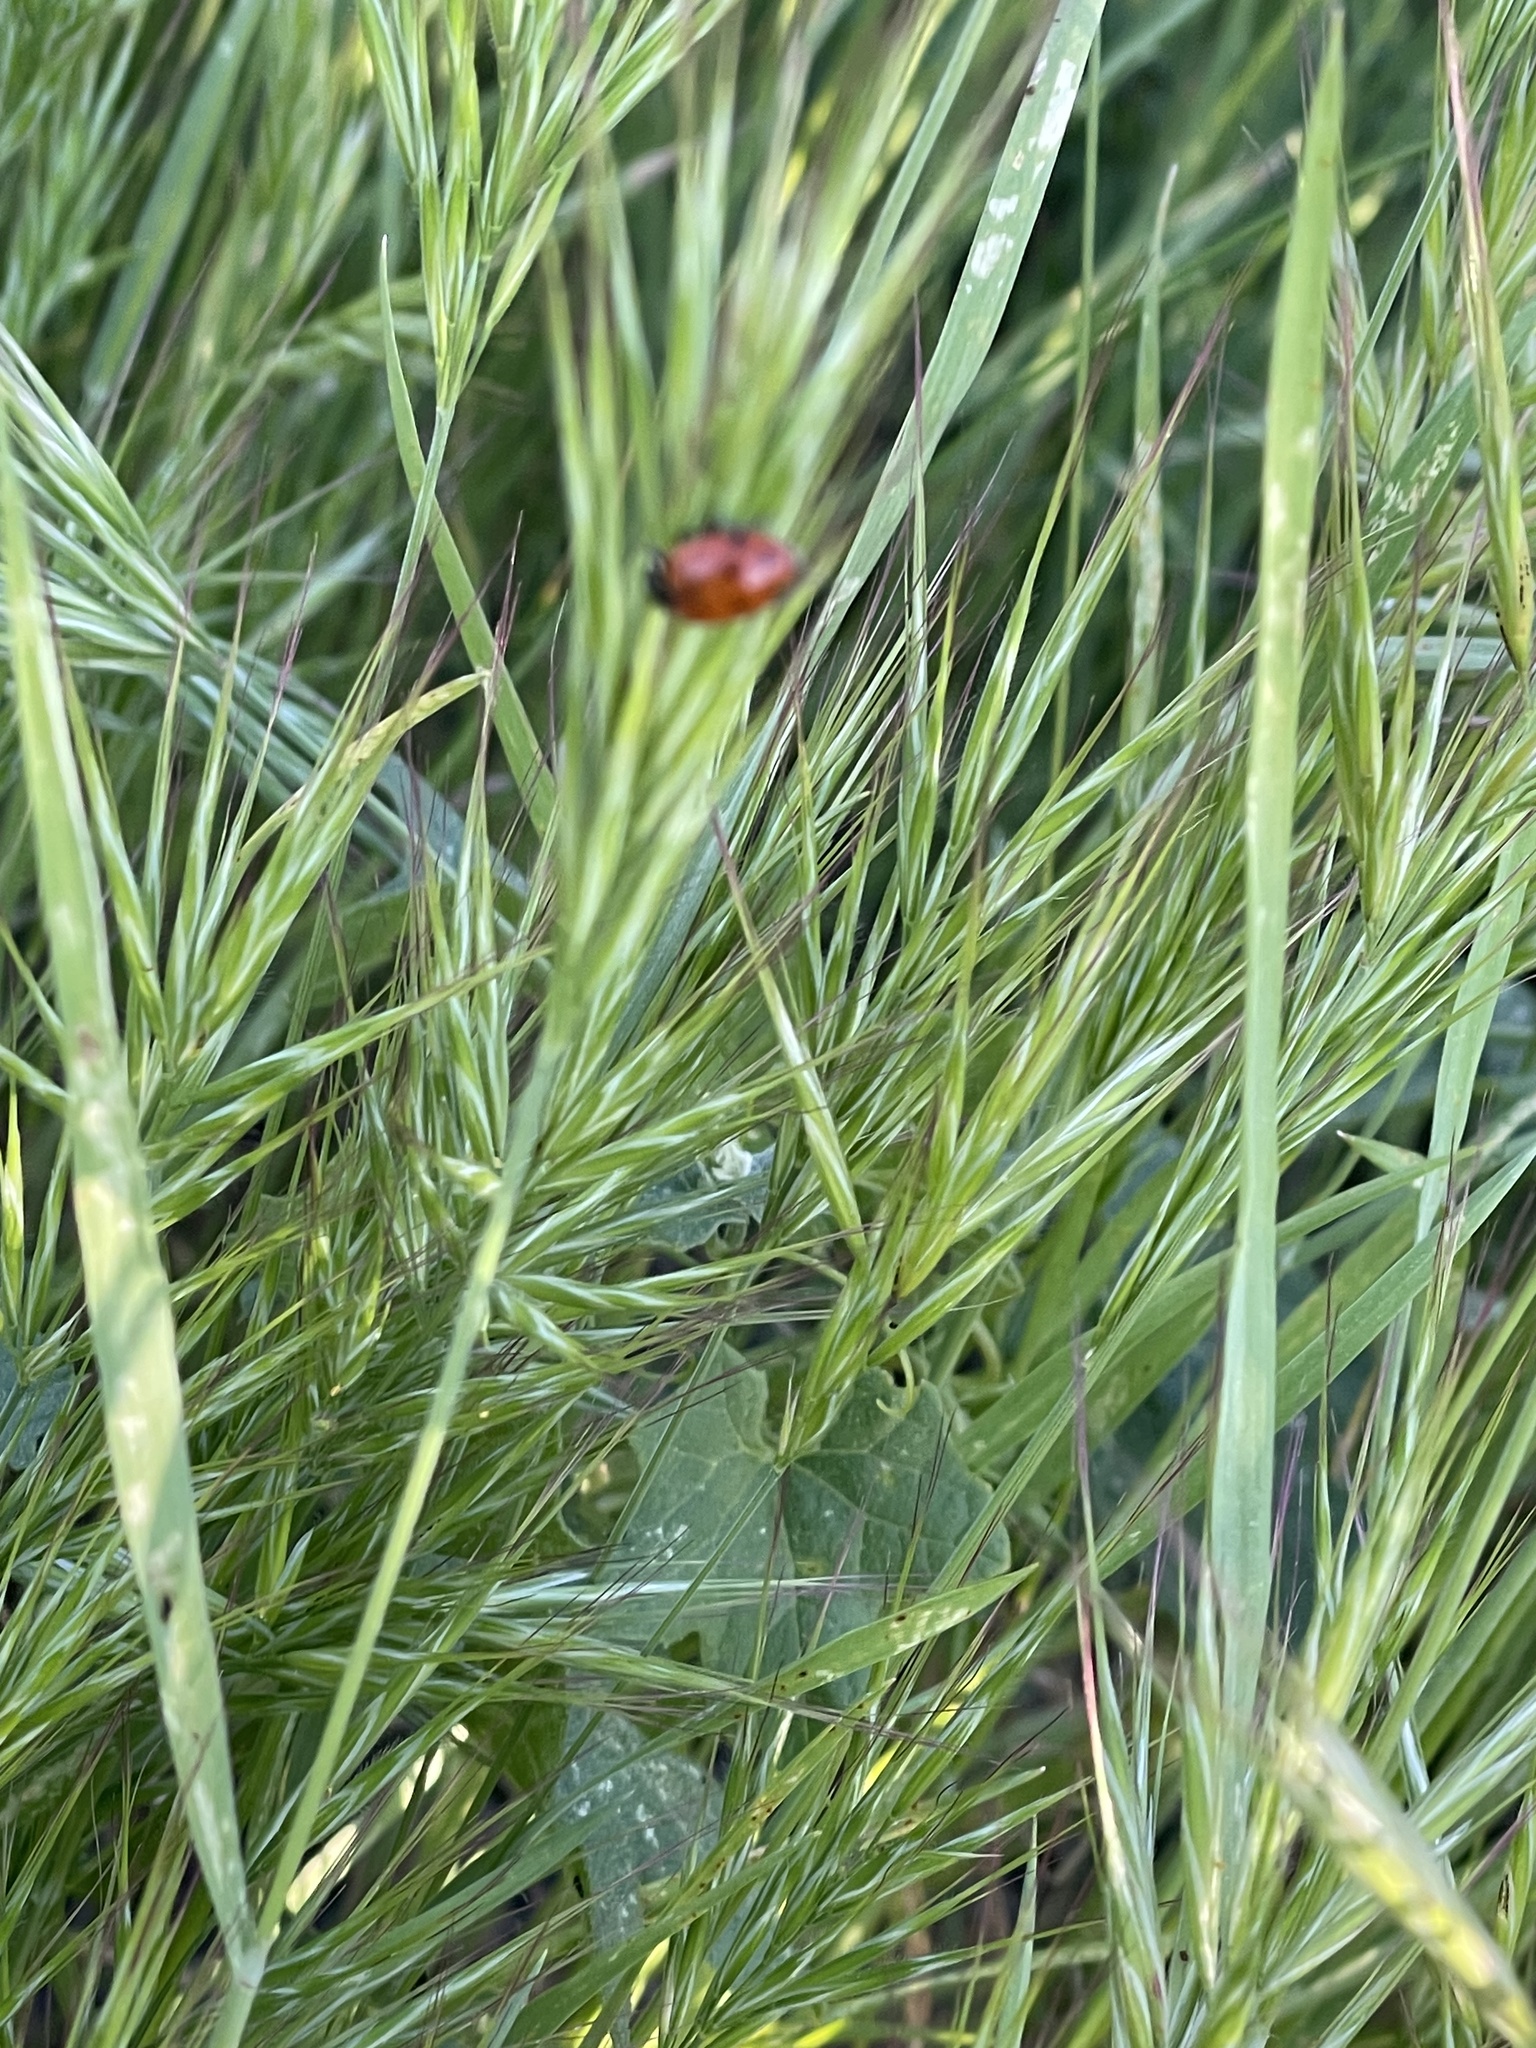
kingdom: Animalia
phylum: Arthropoda
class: Insecta
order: Coleoptera
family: Coccinellidae
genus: Hippodamia
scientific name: Hippodamia convergens
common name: Convergent lady beetle
